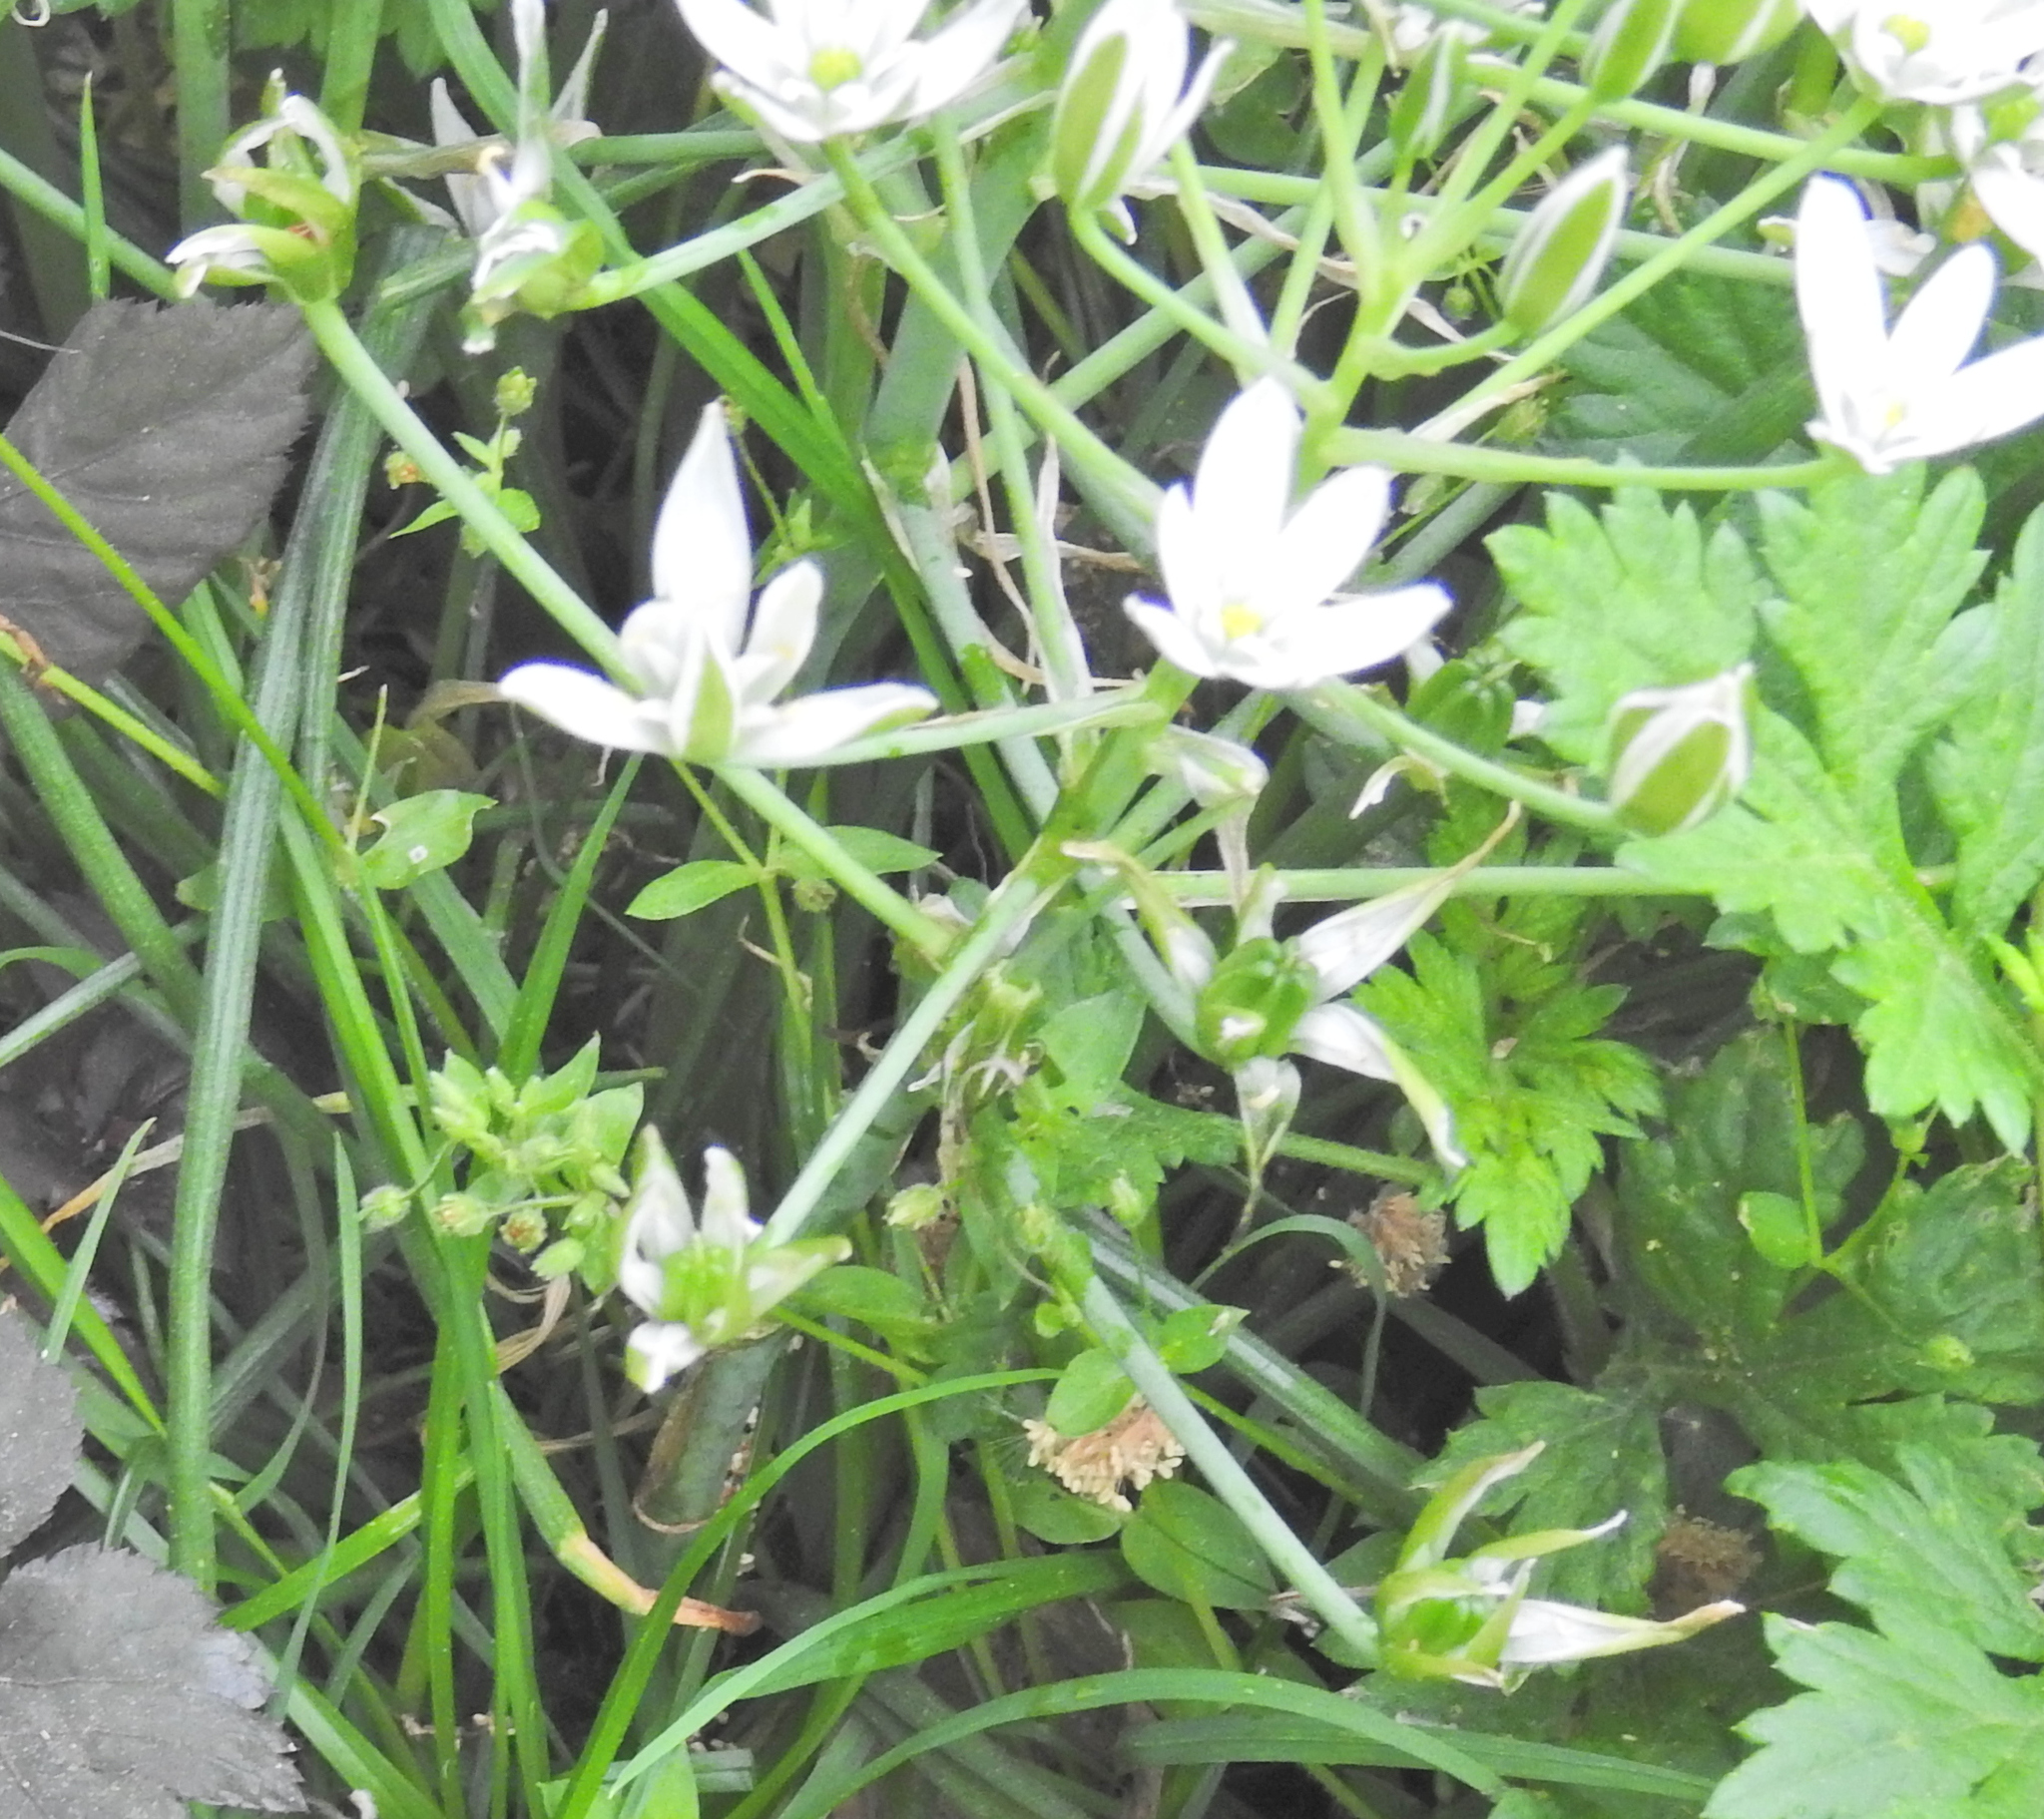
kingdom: Plantae
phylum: Tracheophyta
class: Liliopsida
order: Asparagales
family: Asparagaceae
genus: Ornithogalum
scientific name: Ornithogalum umbellatum
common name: Garden star-of-bethlehem
